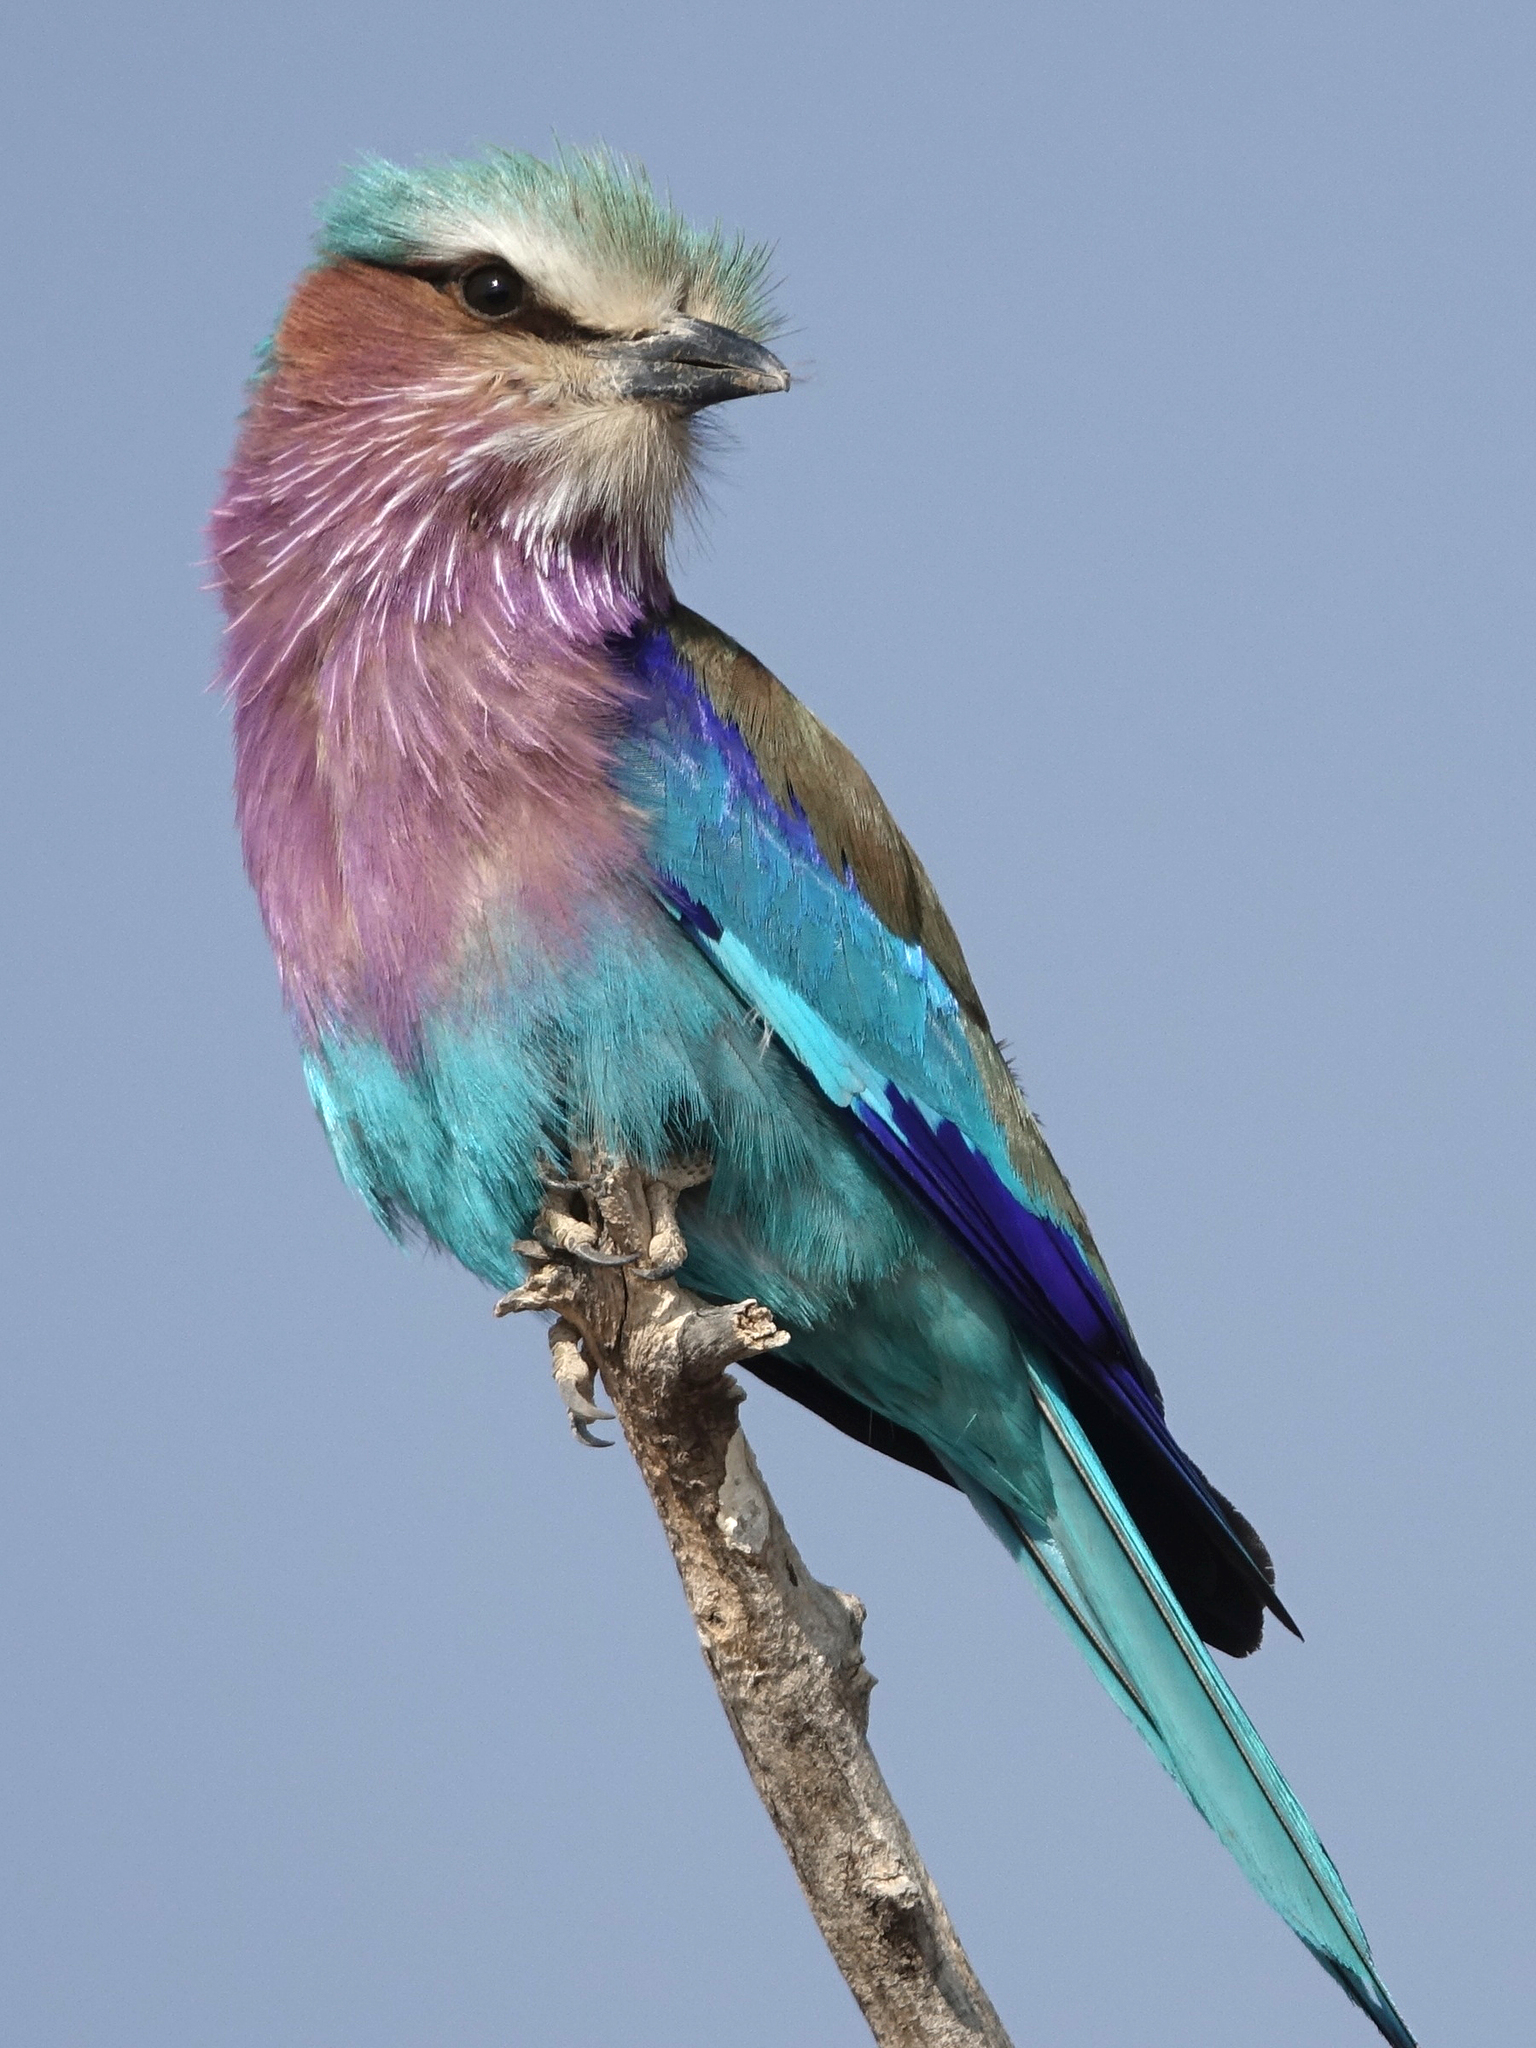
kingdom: Animalia
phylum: Chordata
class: Aves
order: Coraciiformes
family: Coraciidae
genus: Coracias
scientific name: Coracias caudatus
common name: Lilac-breasted roller
